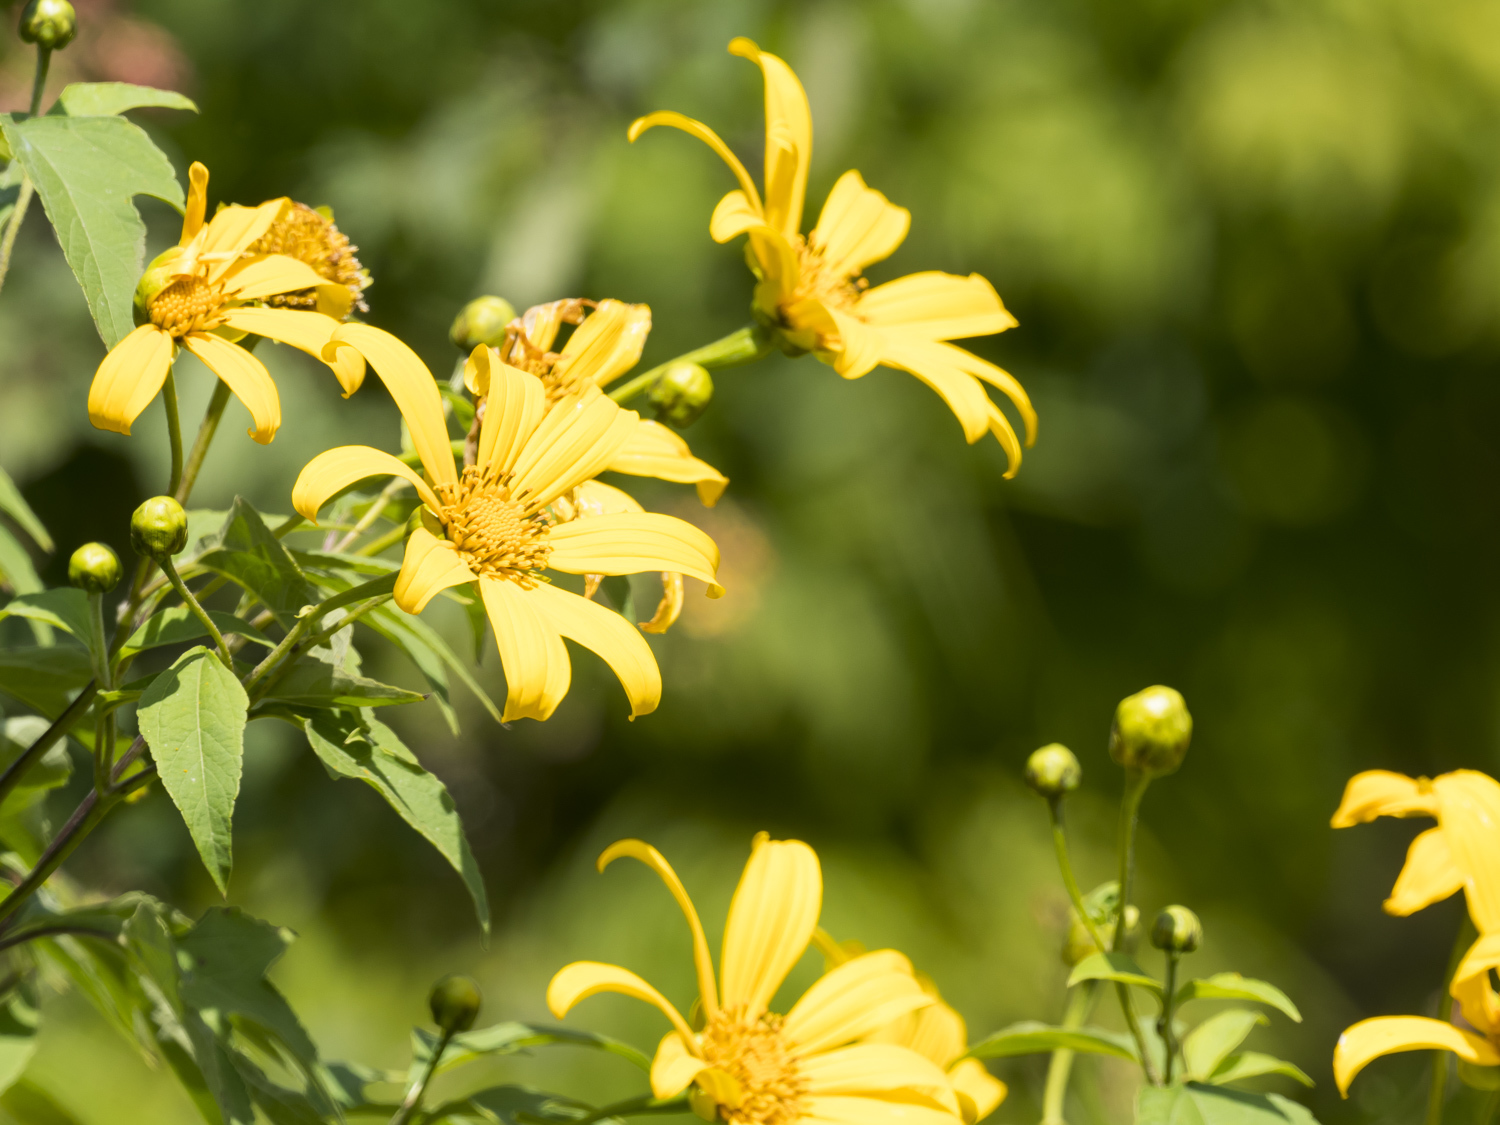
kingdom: Plantae
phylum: Tracheophyta
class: Magnoliopsida
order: Asterales
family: Asteraceae
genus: Tithonia
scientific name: Tithonia diversifolia
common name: Tree marigold
